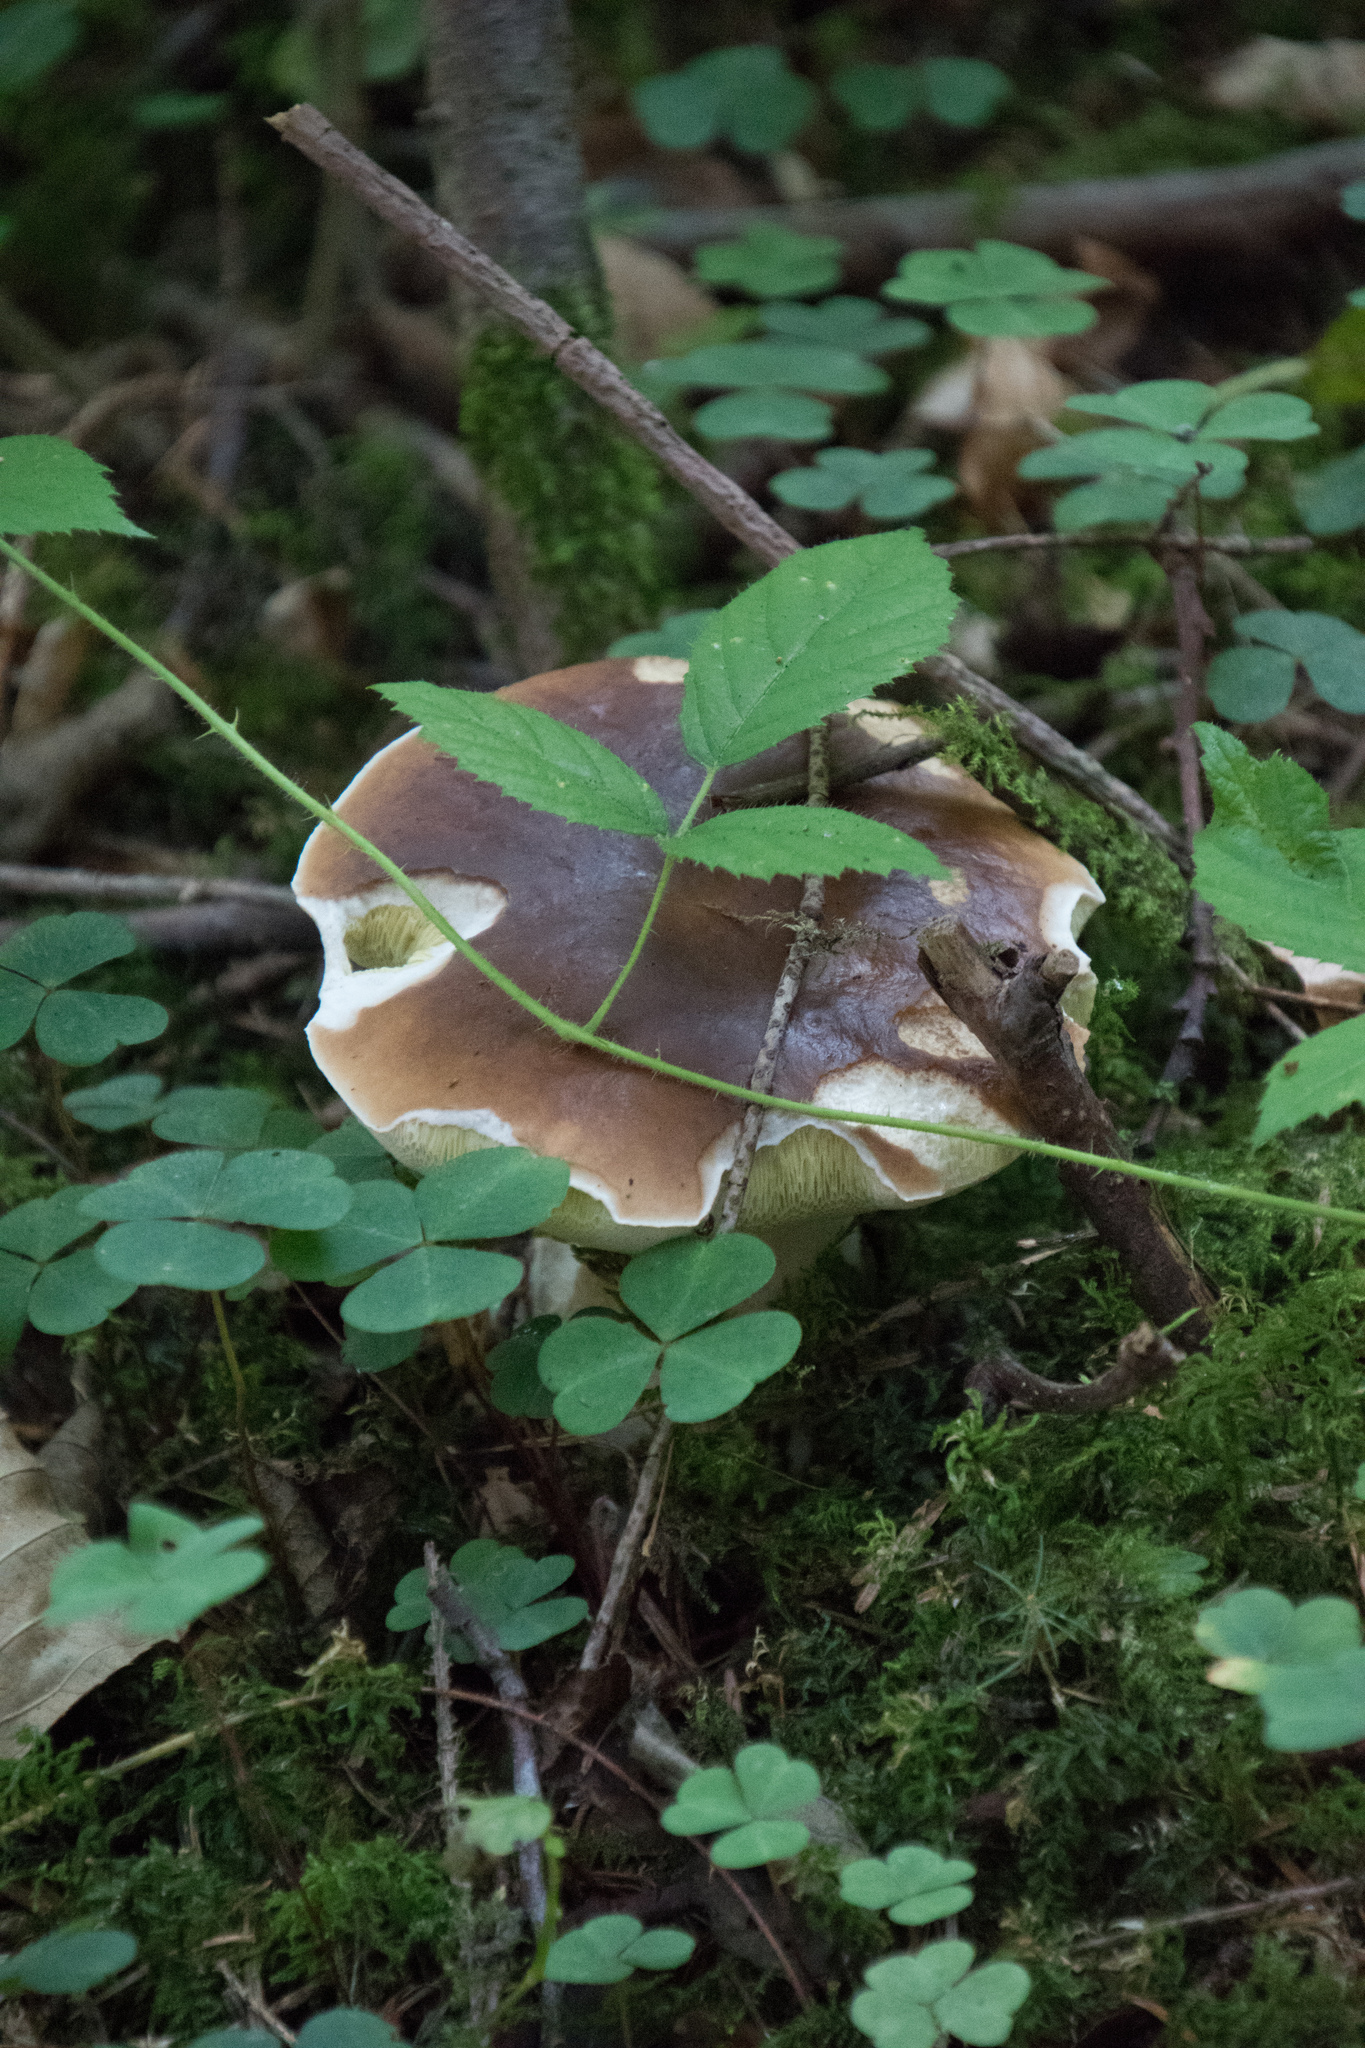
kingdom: Fungi
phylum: Basidiomycota
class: Agaricomycetes
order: Boletales
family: Boletaceae
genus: Boletus
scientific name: Boletus edulis
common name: Cep
